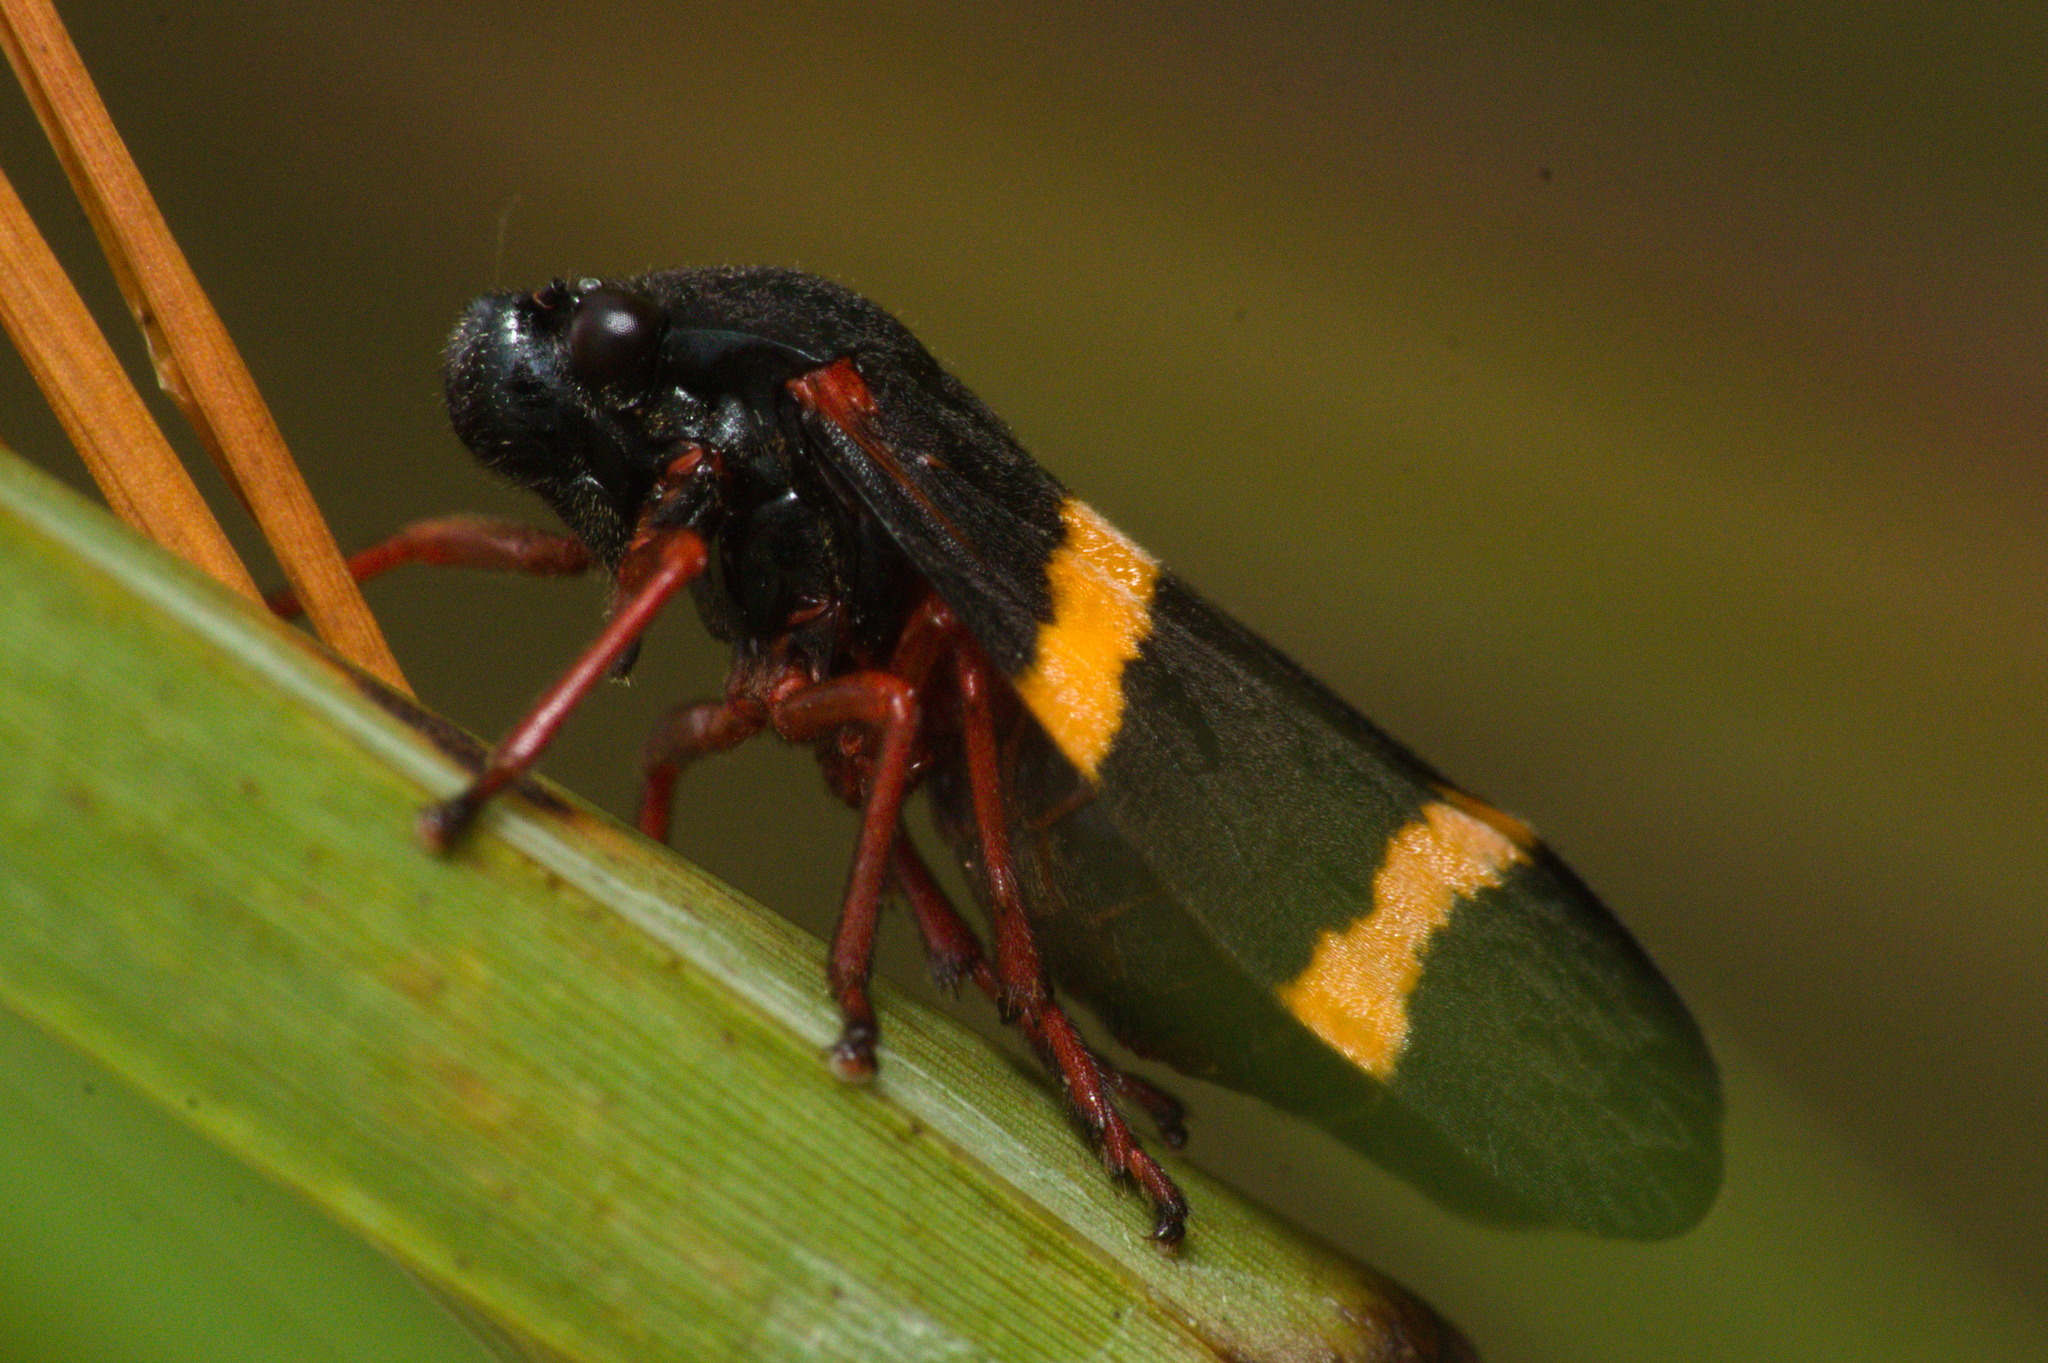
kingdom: Animalia
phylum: Arthropoda
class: Insecta
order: Hemiptera
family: Cercopidae
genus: Mahanarva
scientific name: Mahanarva integra
